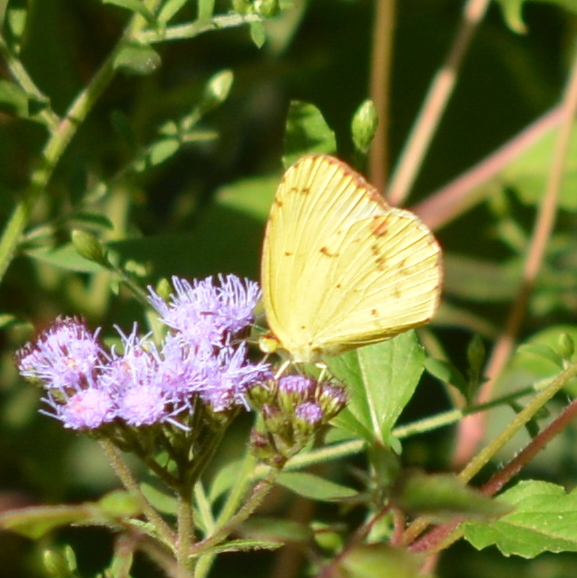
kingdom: Animalia
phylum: Arthropoda
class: Insecta
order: Lepidoptera
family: Pieridae
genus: Pyrisitia
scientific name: Pyrisitia lisa
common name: Little yellow
